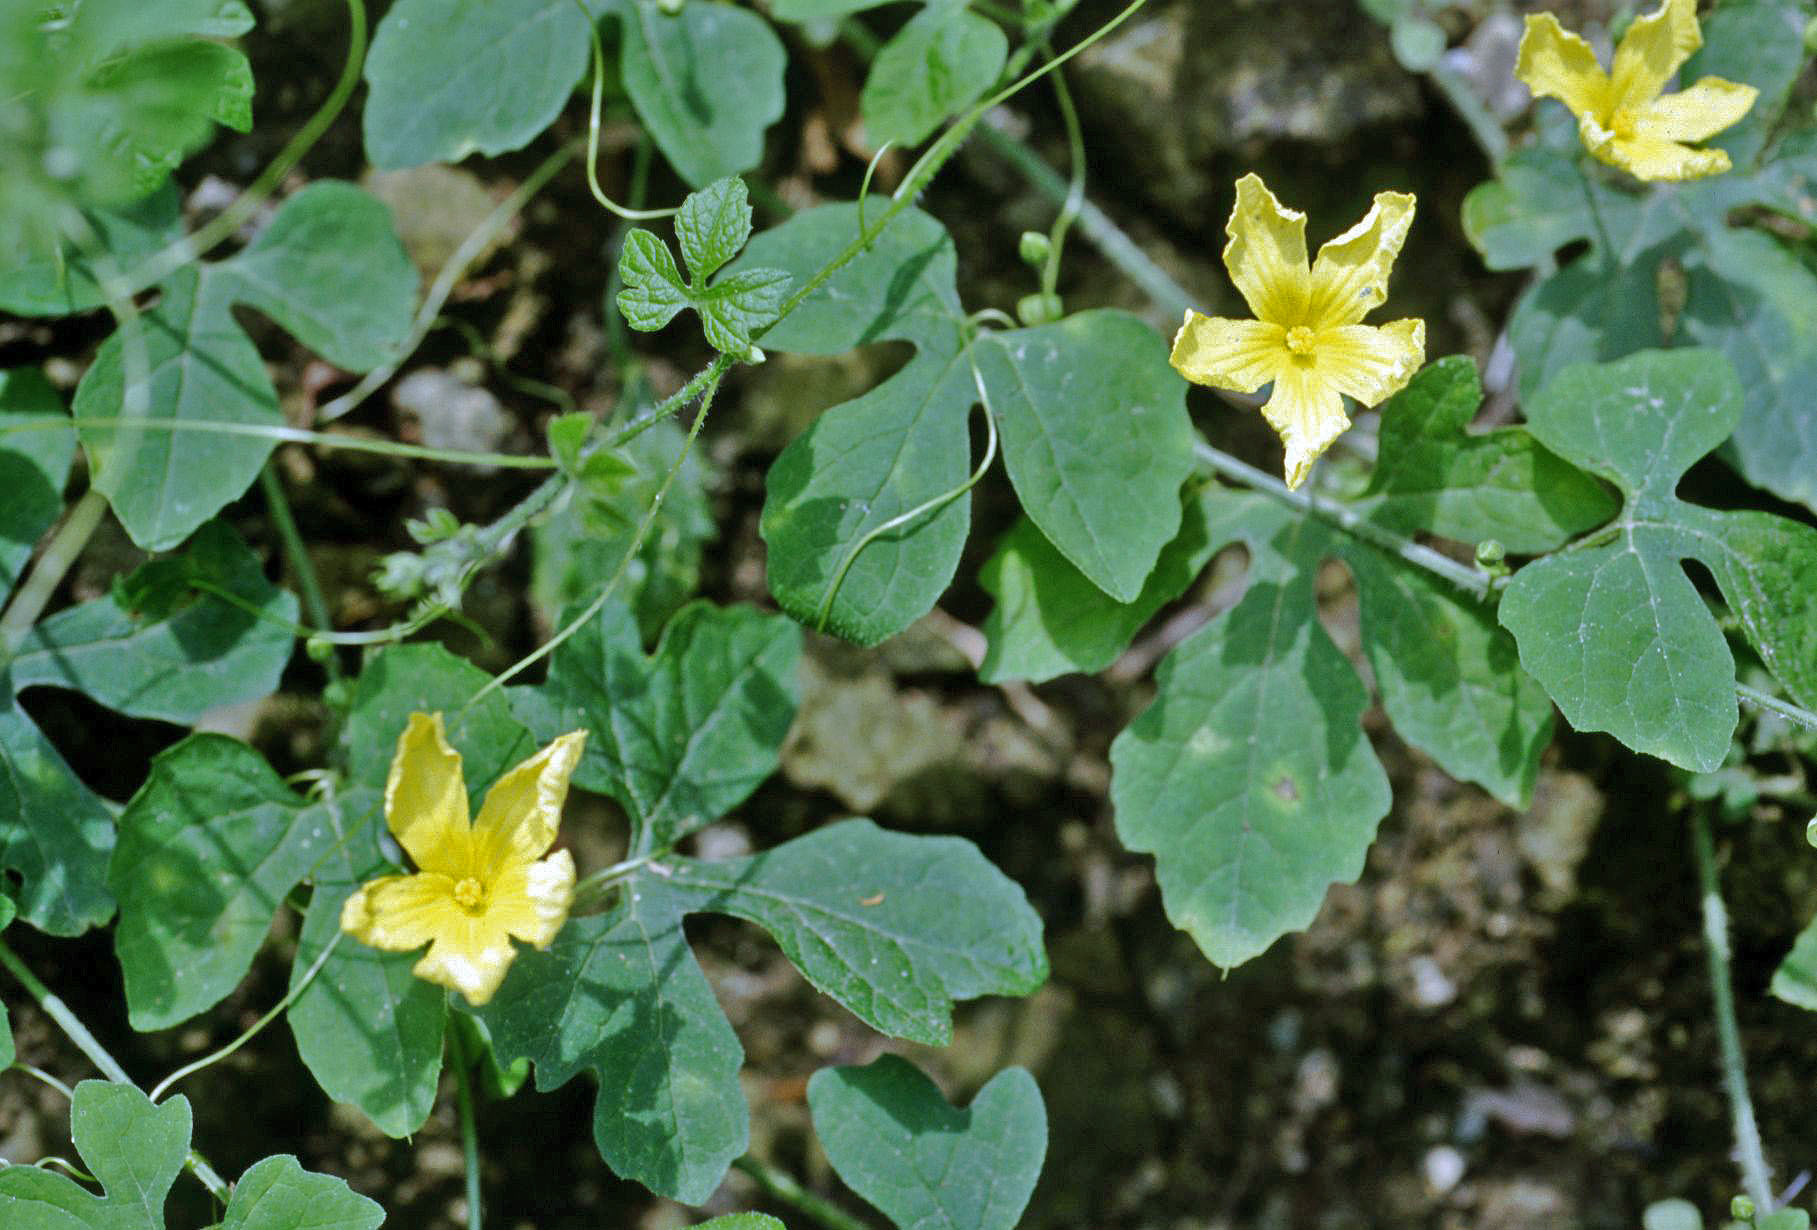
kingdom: Plantae
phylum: Tracheophyta
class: Magnoliopsida
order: Cucurbitales
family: Cucurbitaceae
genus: Momordica
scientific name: Momordica charantia
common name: Balsampear
